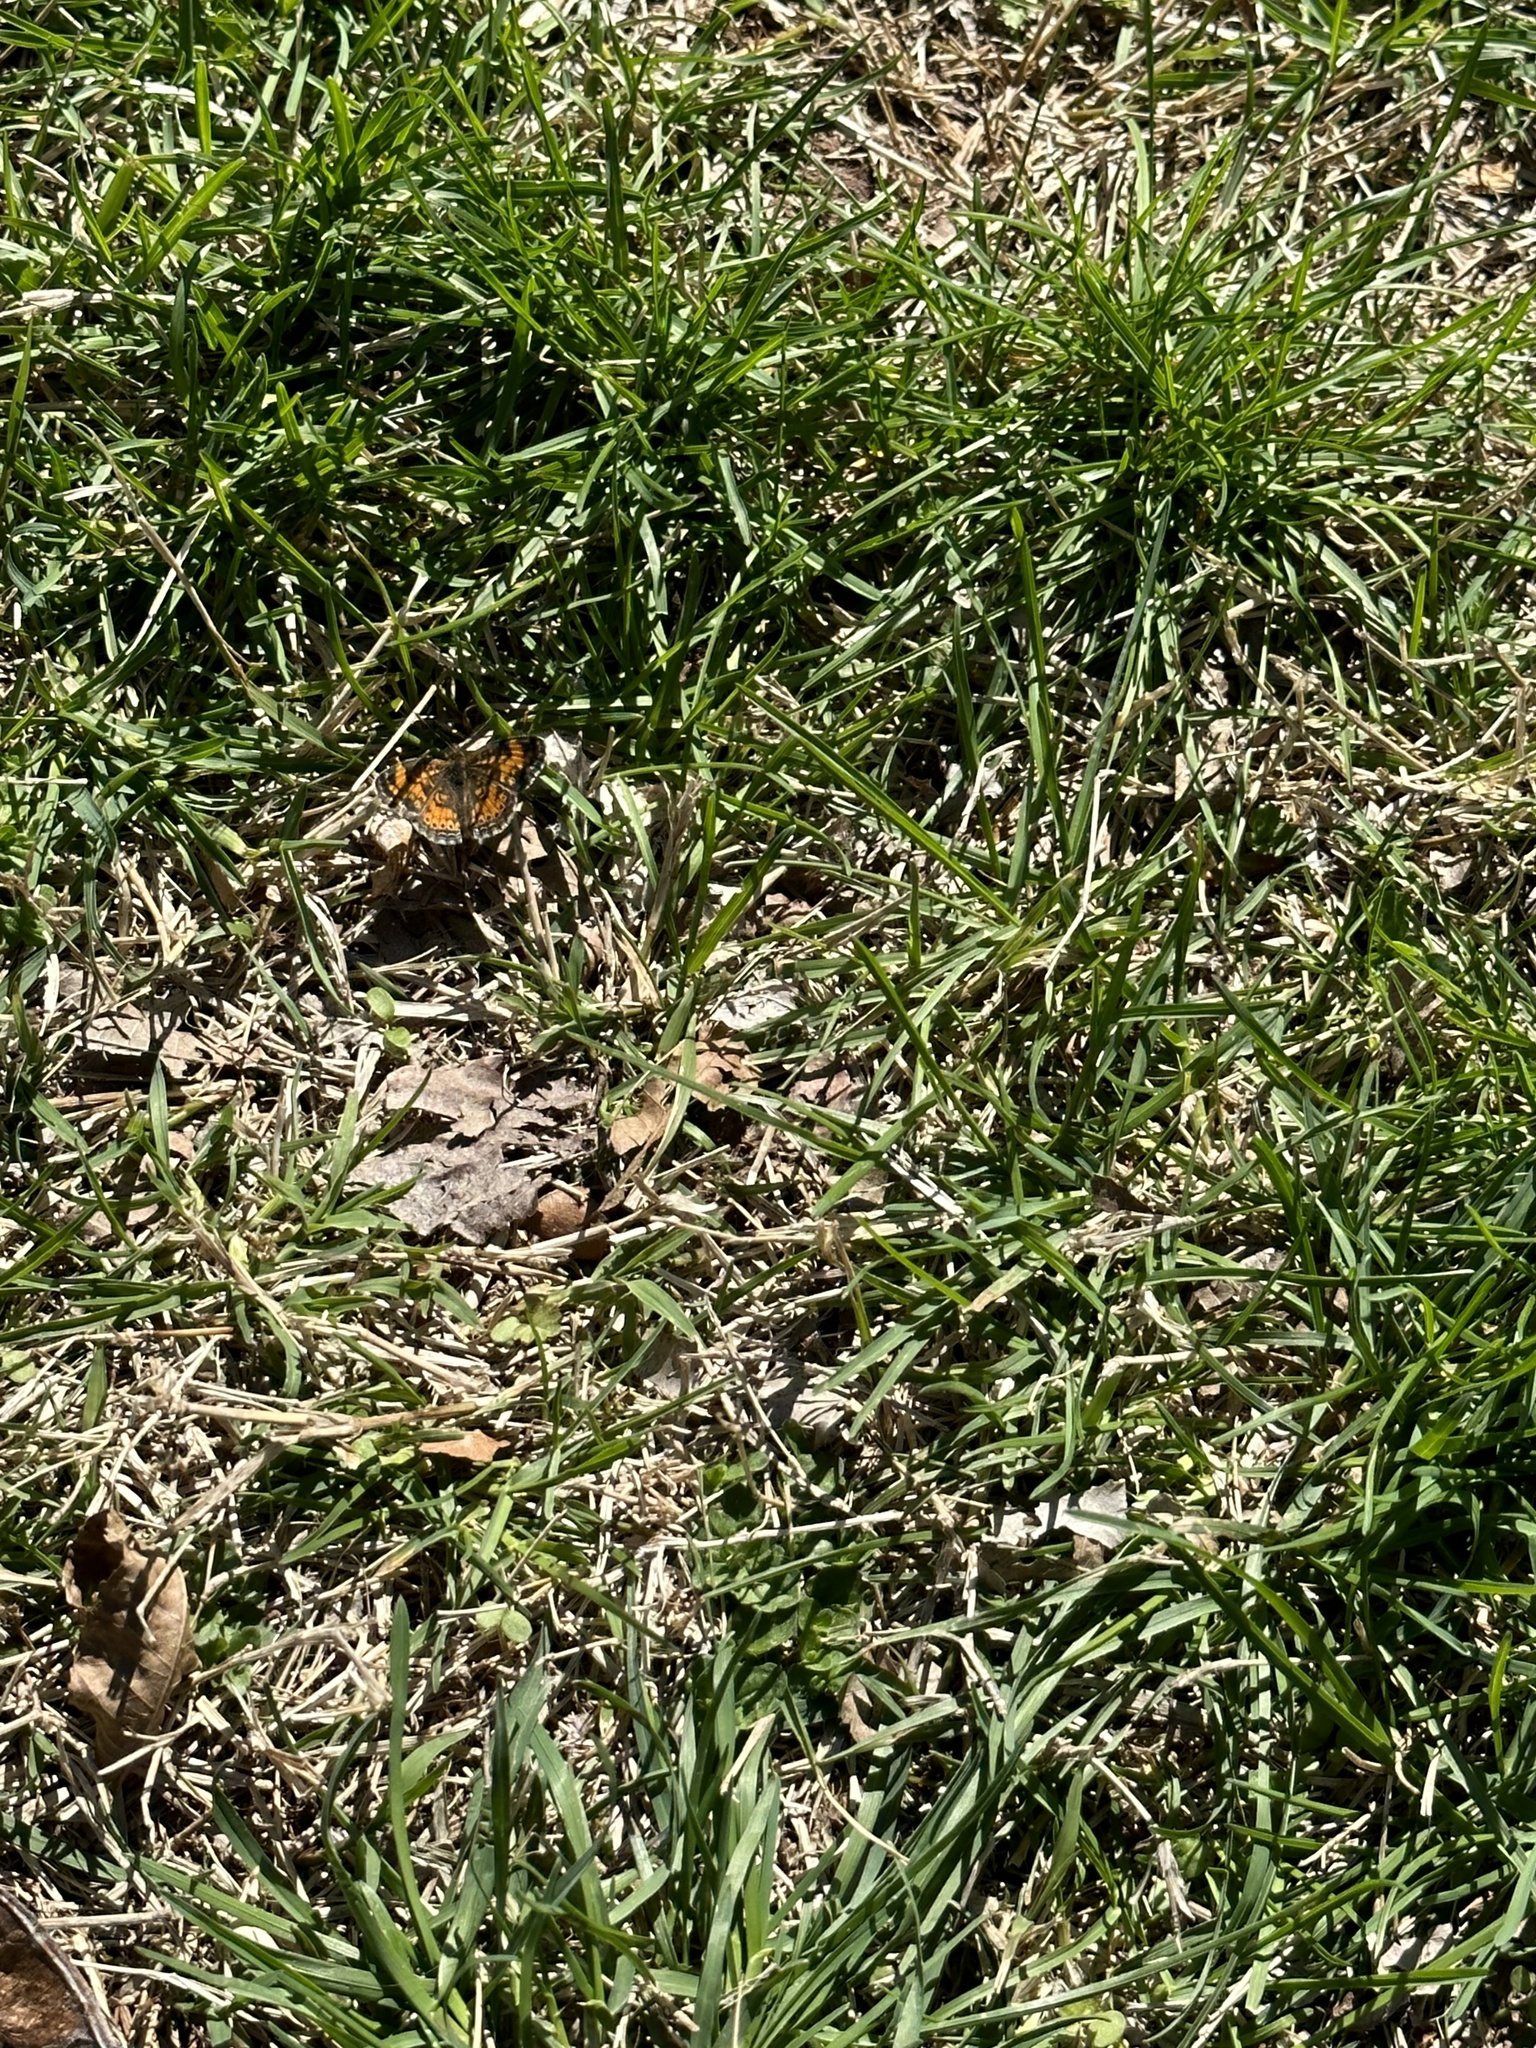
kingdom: Animalia
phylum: Arthropoda
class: Insecta
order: Lepidoptera
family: Nymphalidae
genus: Phyciodes
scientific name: Phyciodes tharos
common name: Pearl crescent
